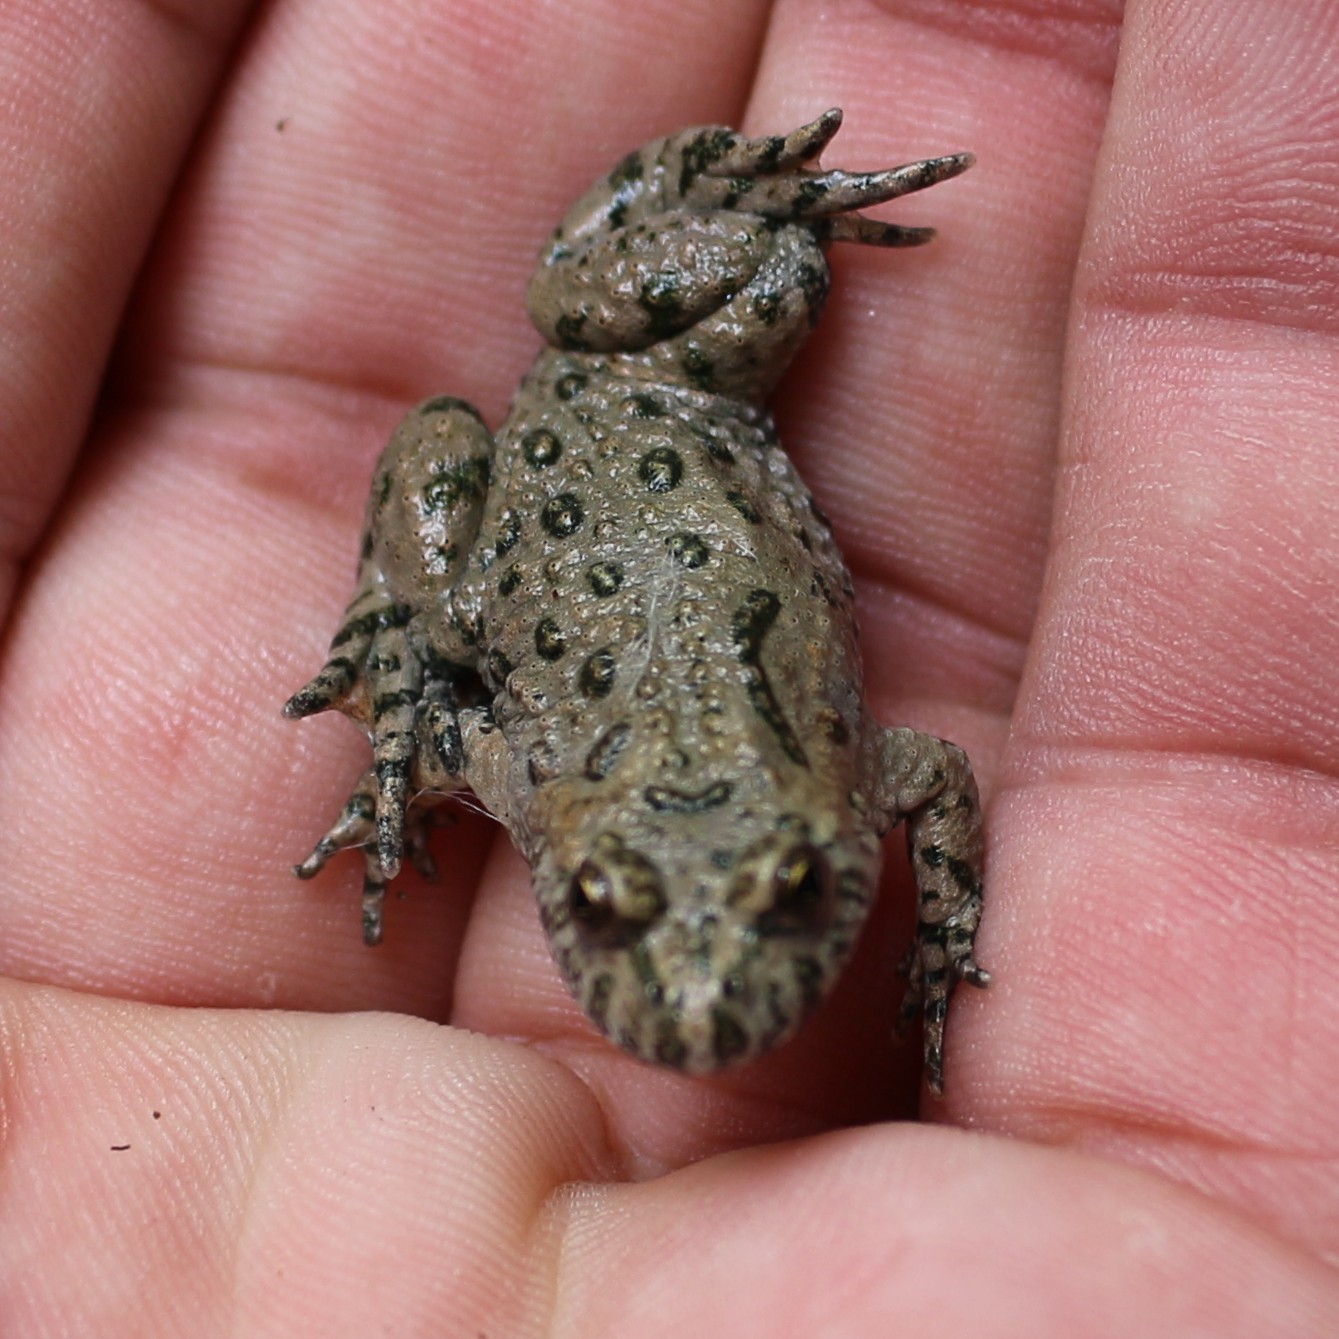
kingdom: Animalia
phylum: Chordata
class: Amphibia
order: Anura
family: Bombinatoridae
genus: Bombina
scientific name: Bombina bombina
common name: Fire-bellied toad
